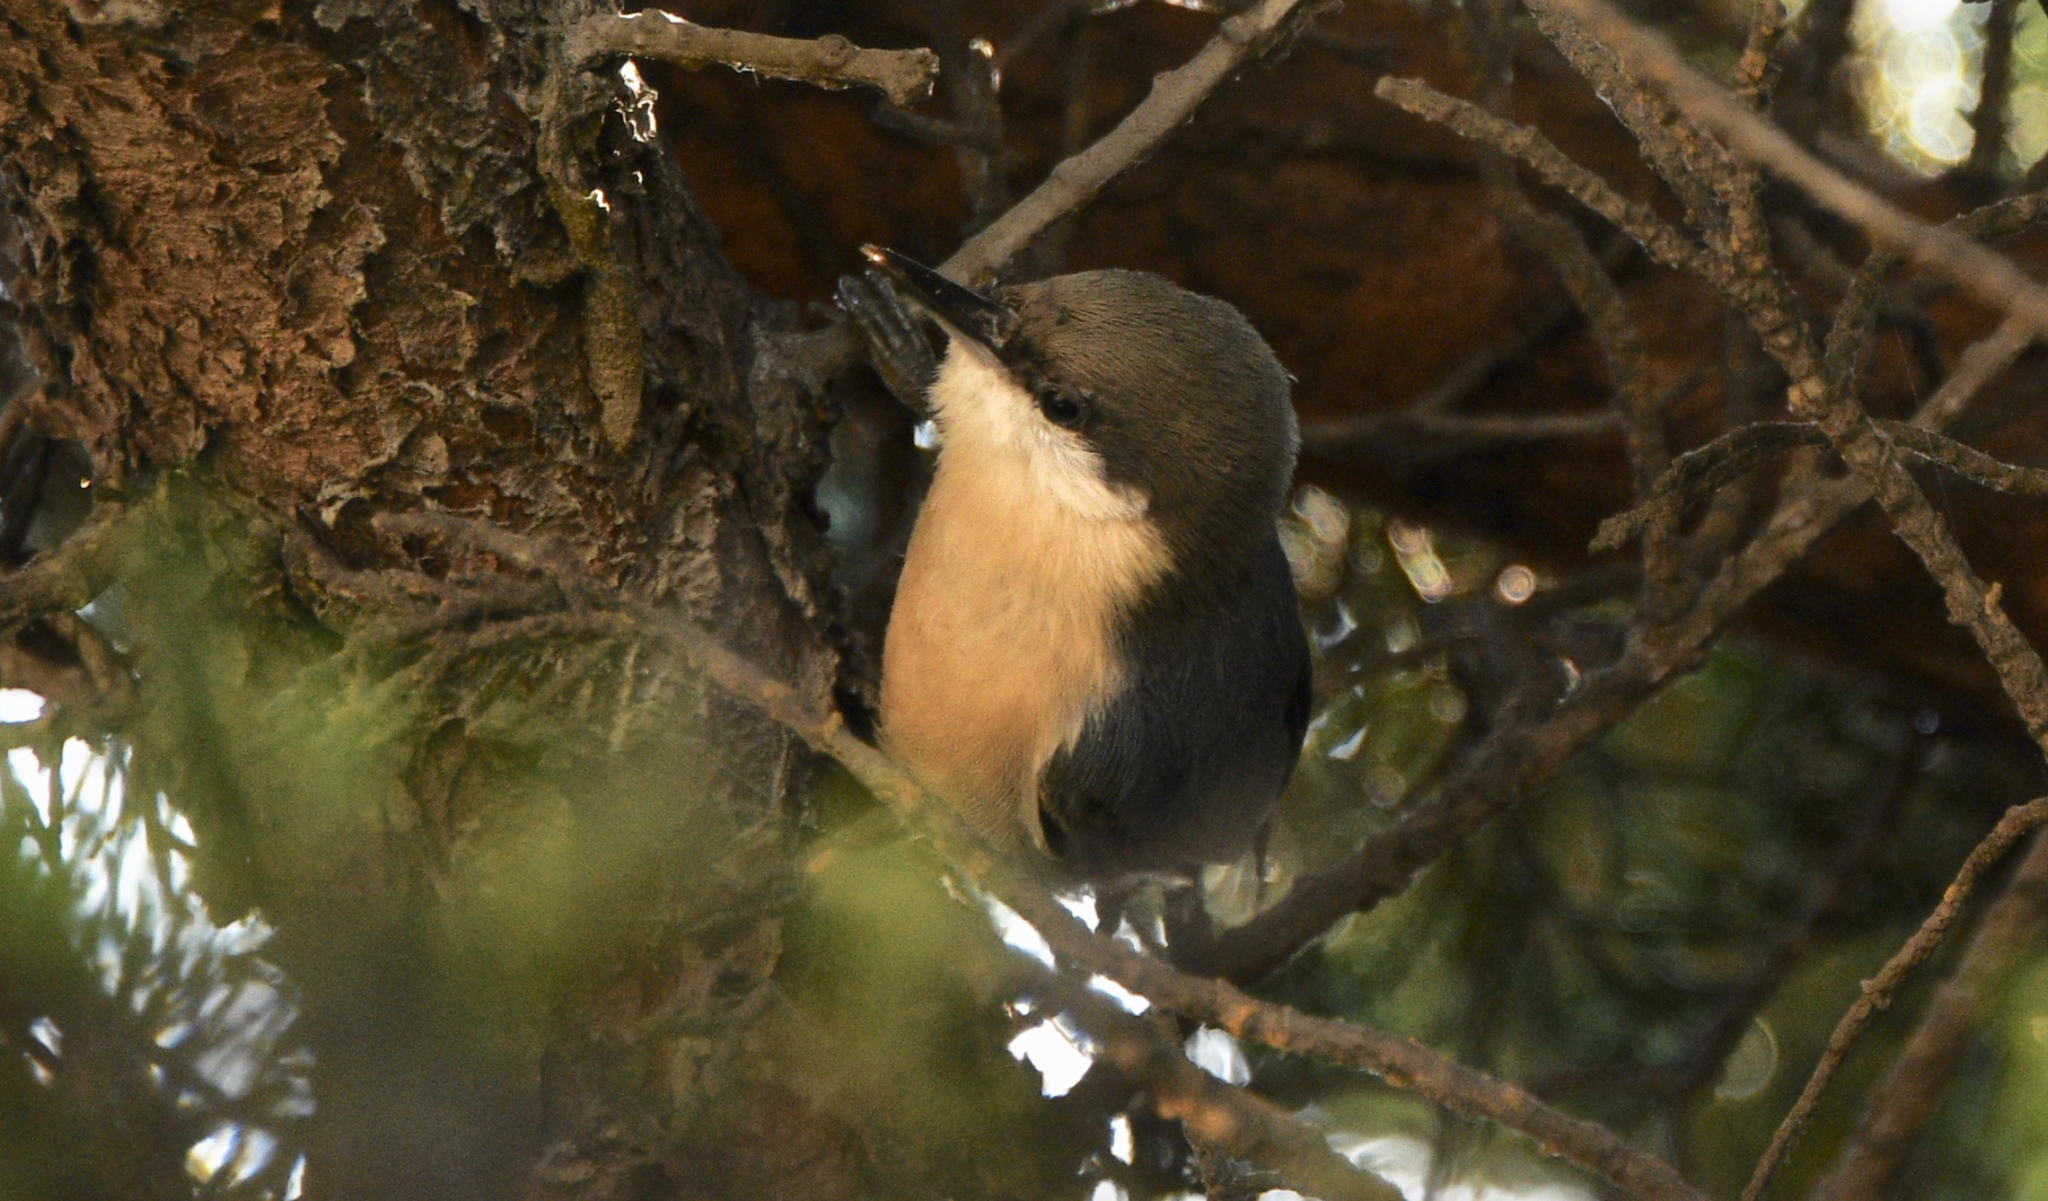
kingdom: Animalia
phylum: Chordata
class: Aves
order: Passeriformes
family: Sittidae
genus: Sitta
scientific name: Sitta pygmaea
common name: Pygmy nuthatch
